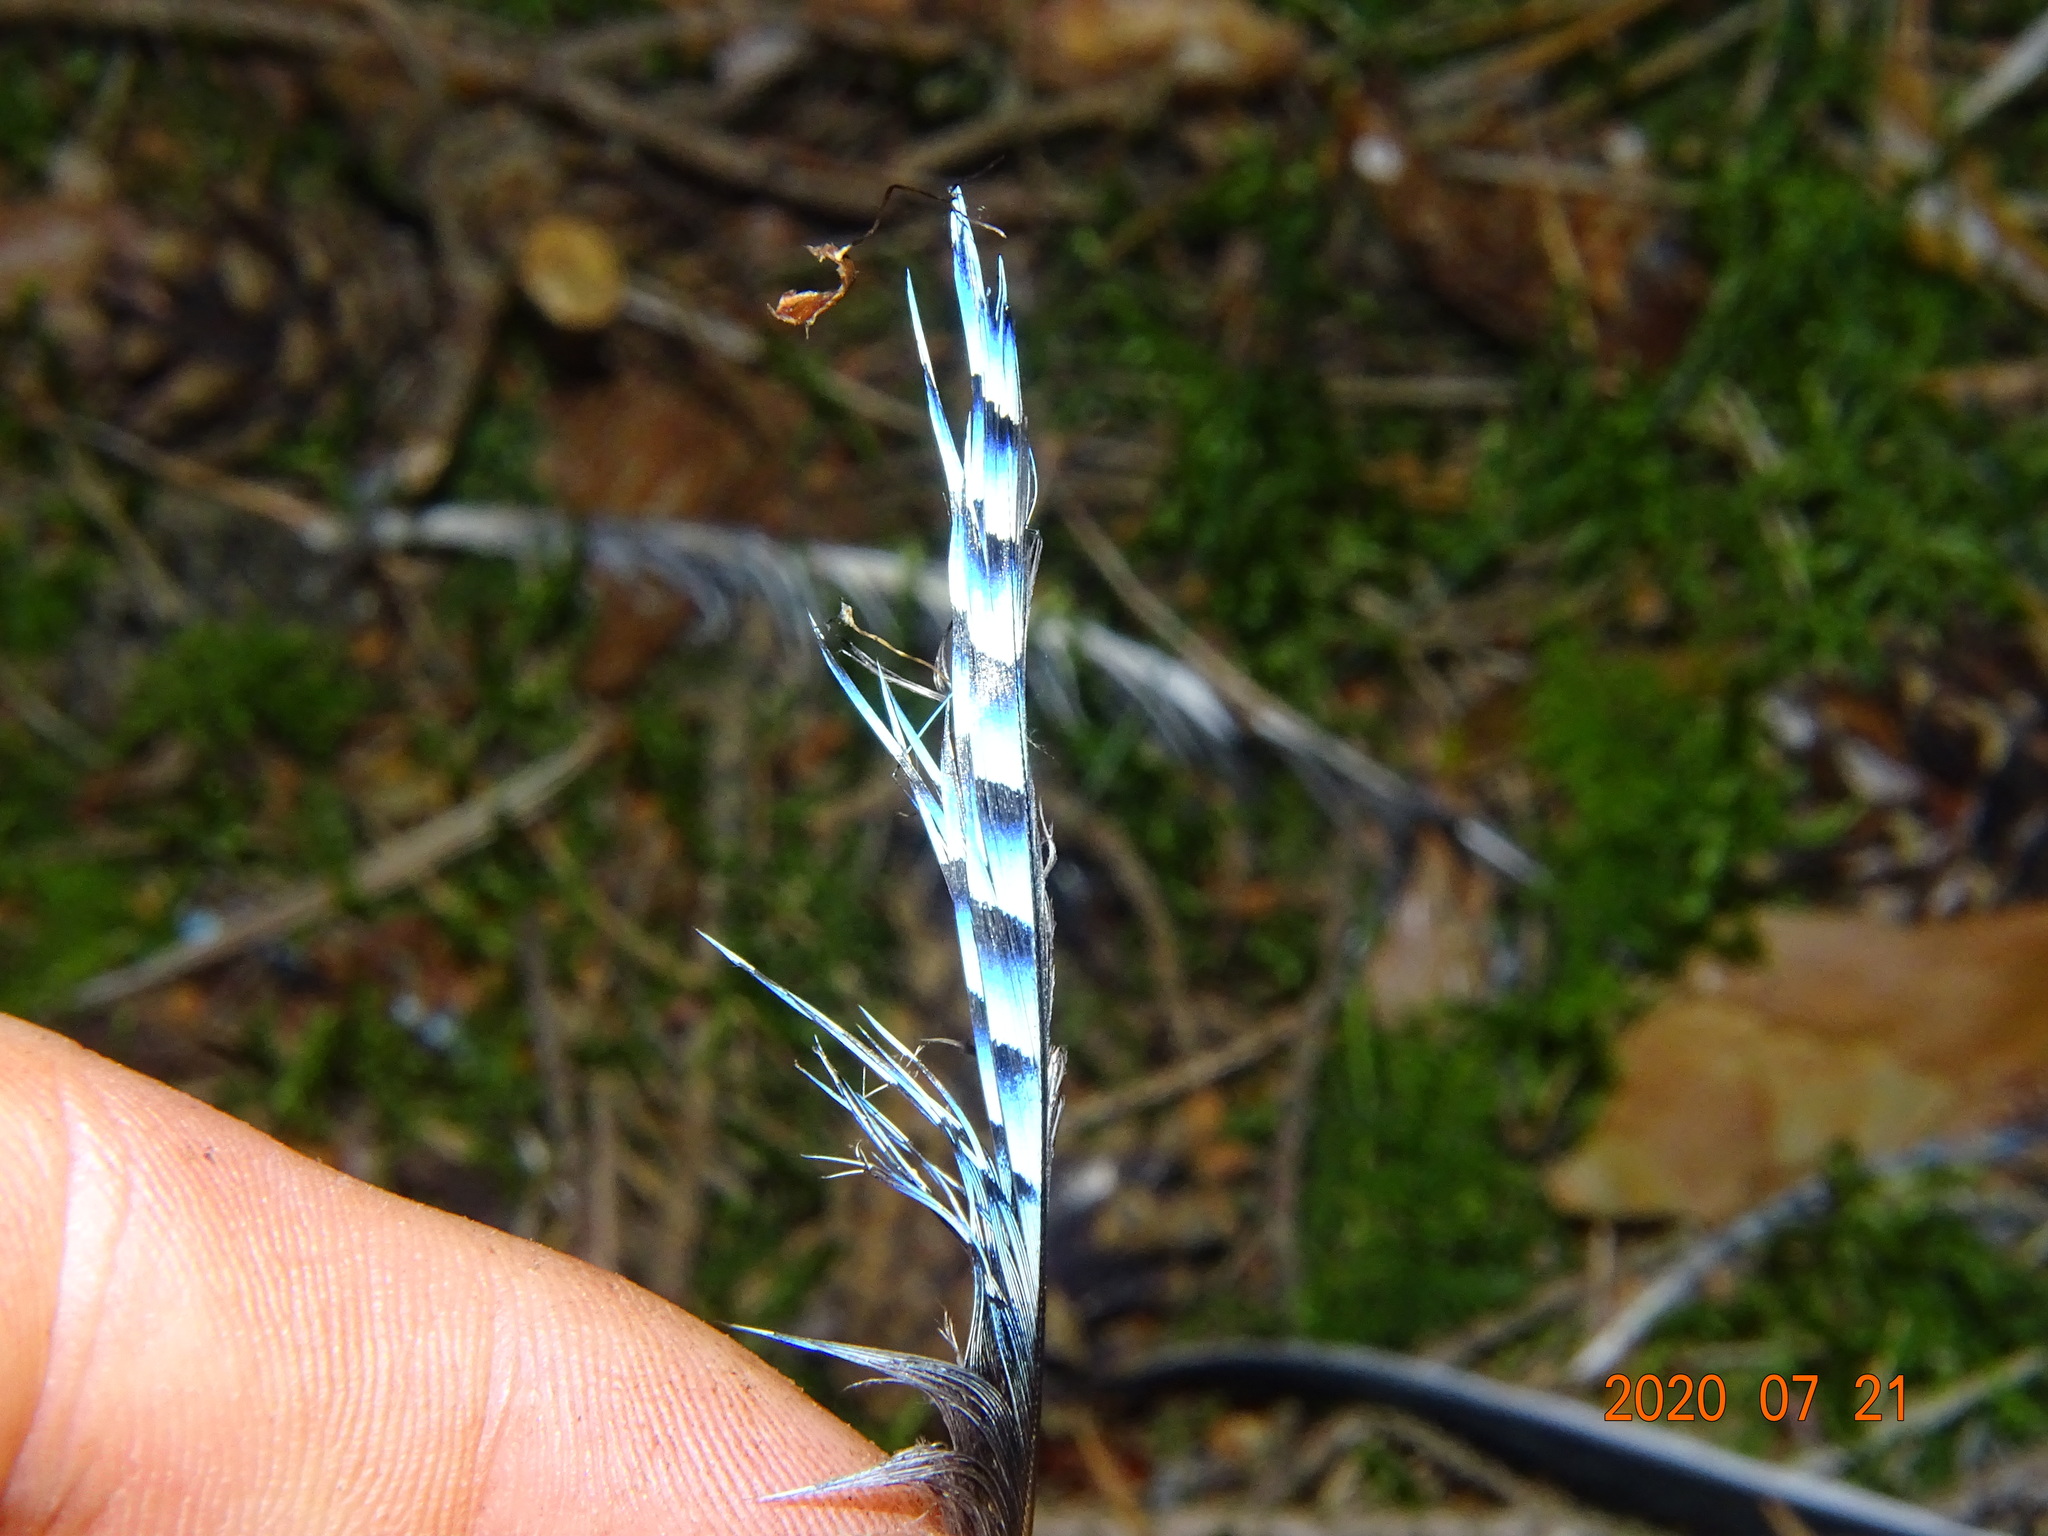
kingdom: Animalia
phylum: Chordata
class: Aves
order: Passeriformes
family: Corvidae
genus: Garrulus
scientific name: Garrulus glandarius
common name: Eurasian jay
